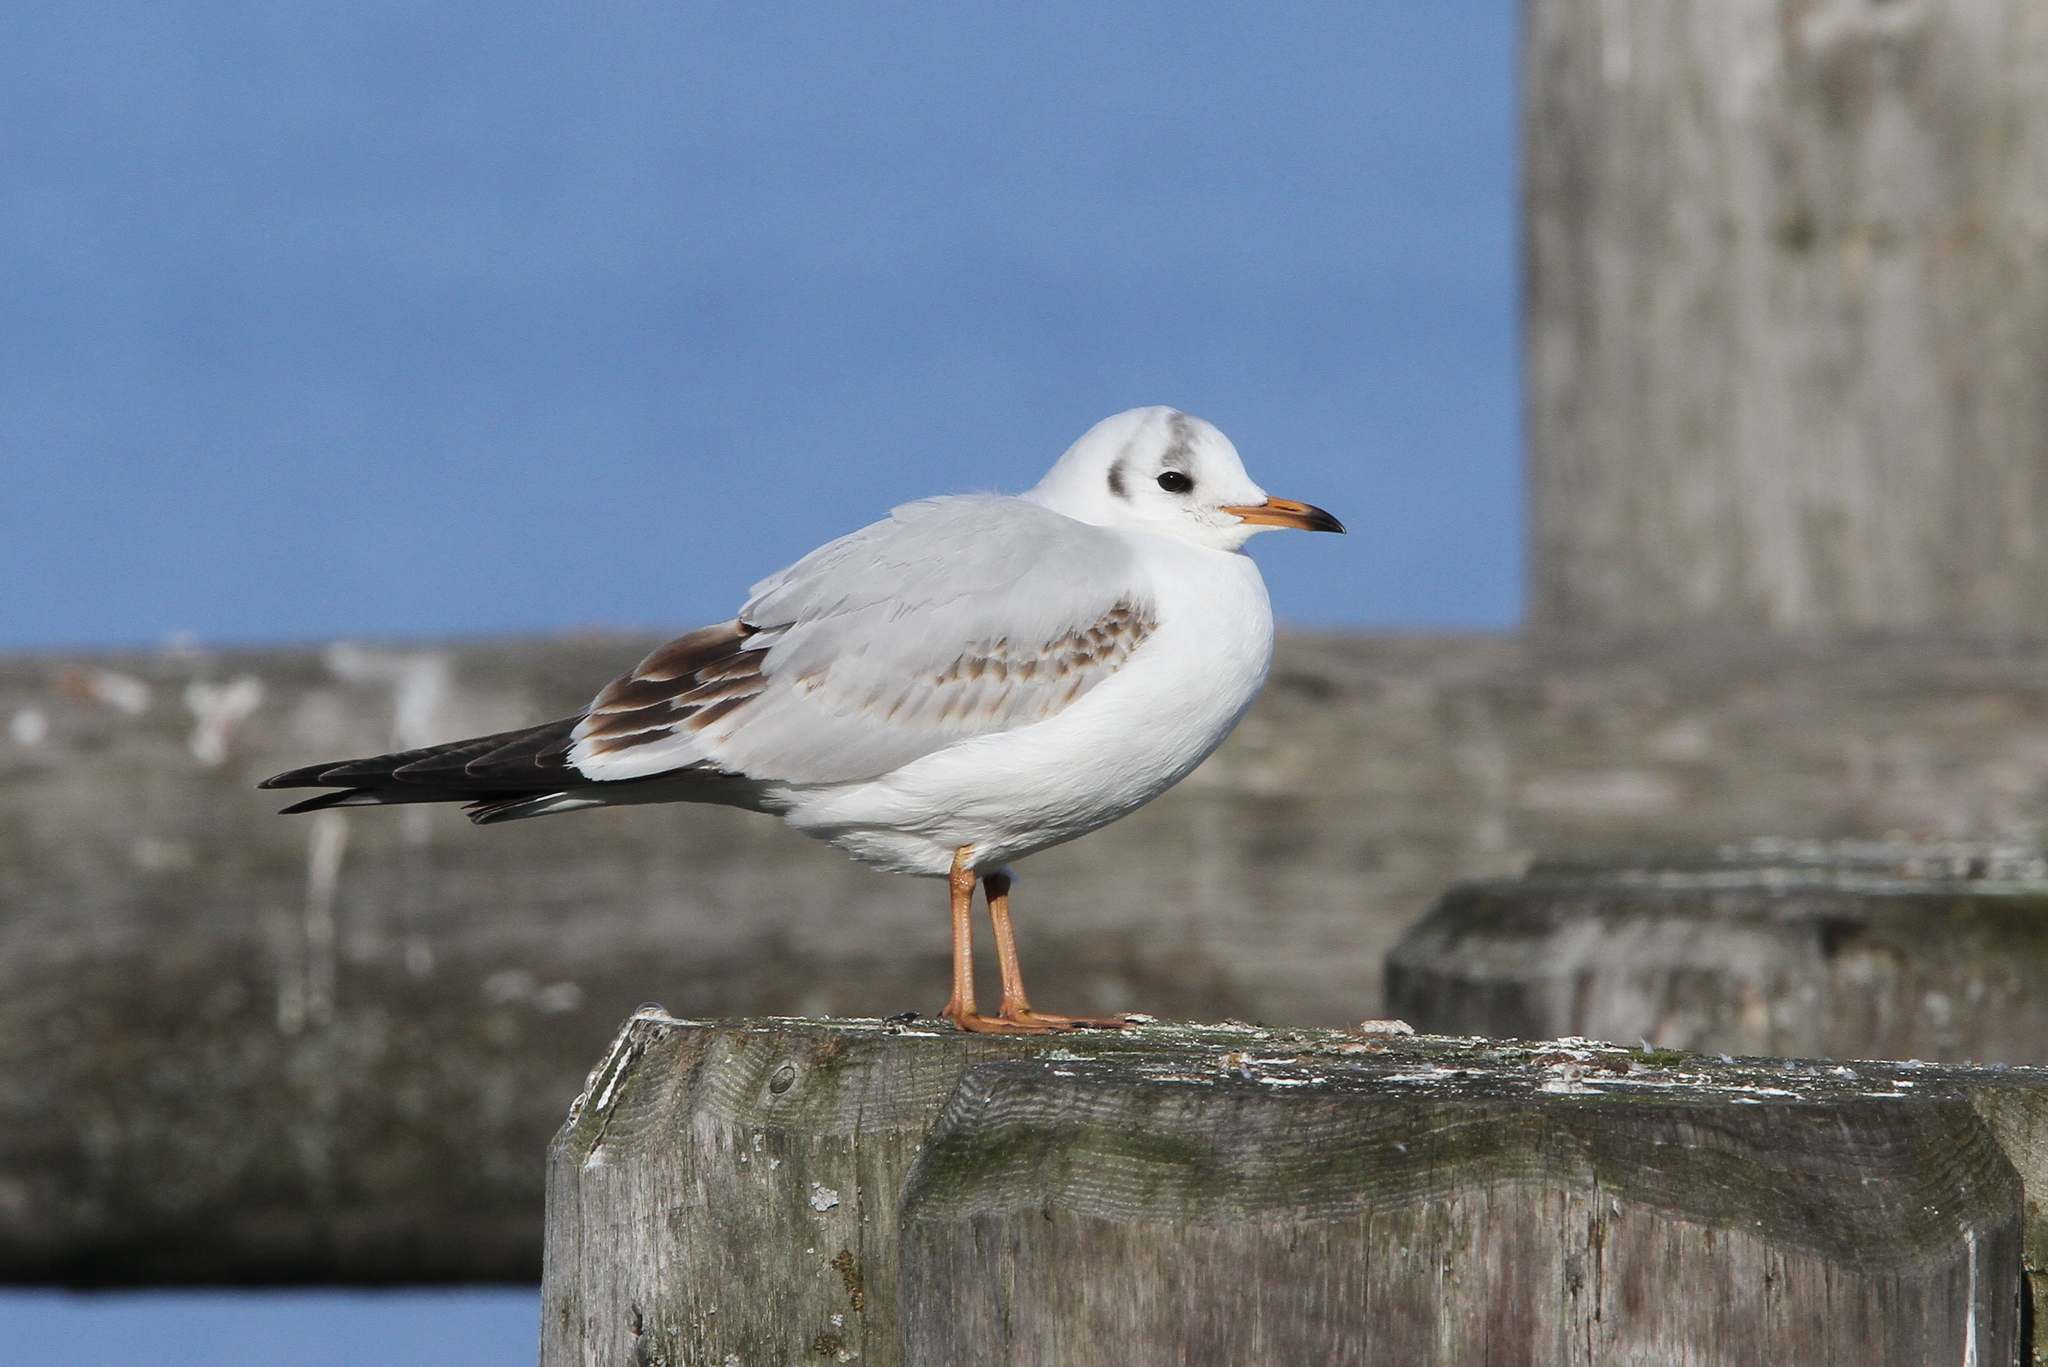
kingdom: Animalia
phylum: Chordata
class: Aves
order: Charadriiformes
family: Laridae
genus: Chroicocephalus
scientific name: Chroicocephalus ridibundus
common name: Black-headed gull
